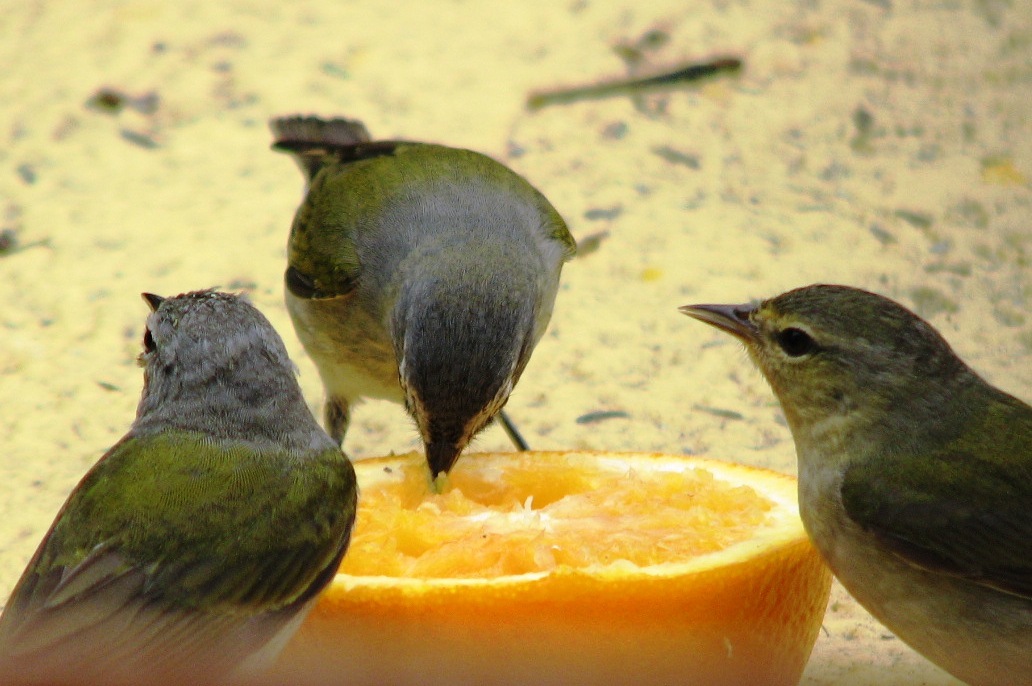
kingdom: Animalia
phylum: Chordata
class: Aves
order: Passeriformes
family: Parulidae
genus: Leiothlypis
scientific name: Leiothlypis peregrina
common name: Tennessee warbler
